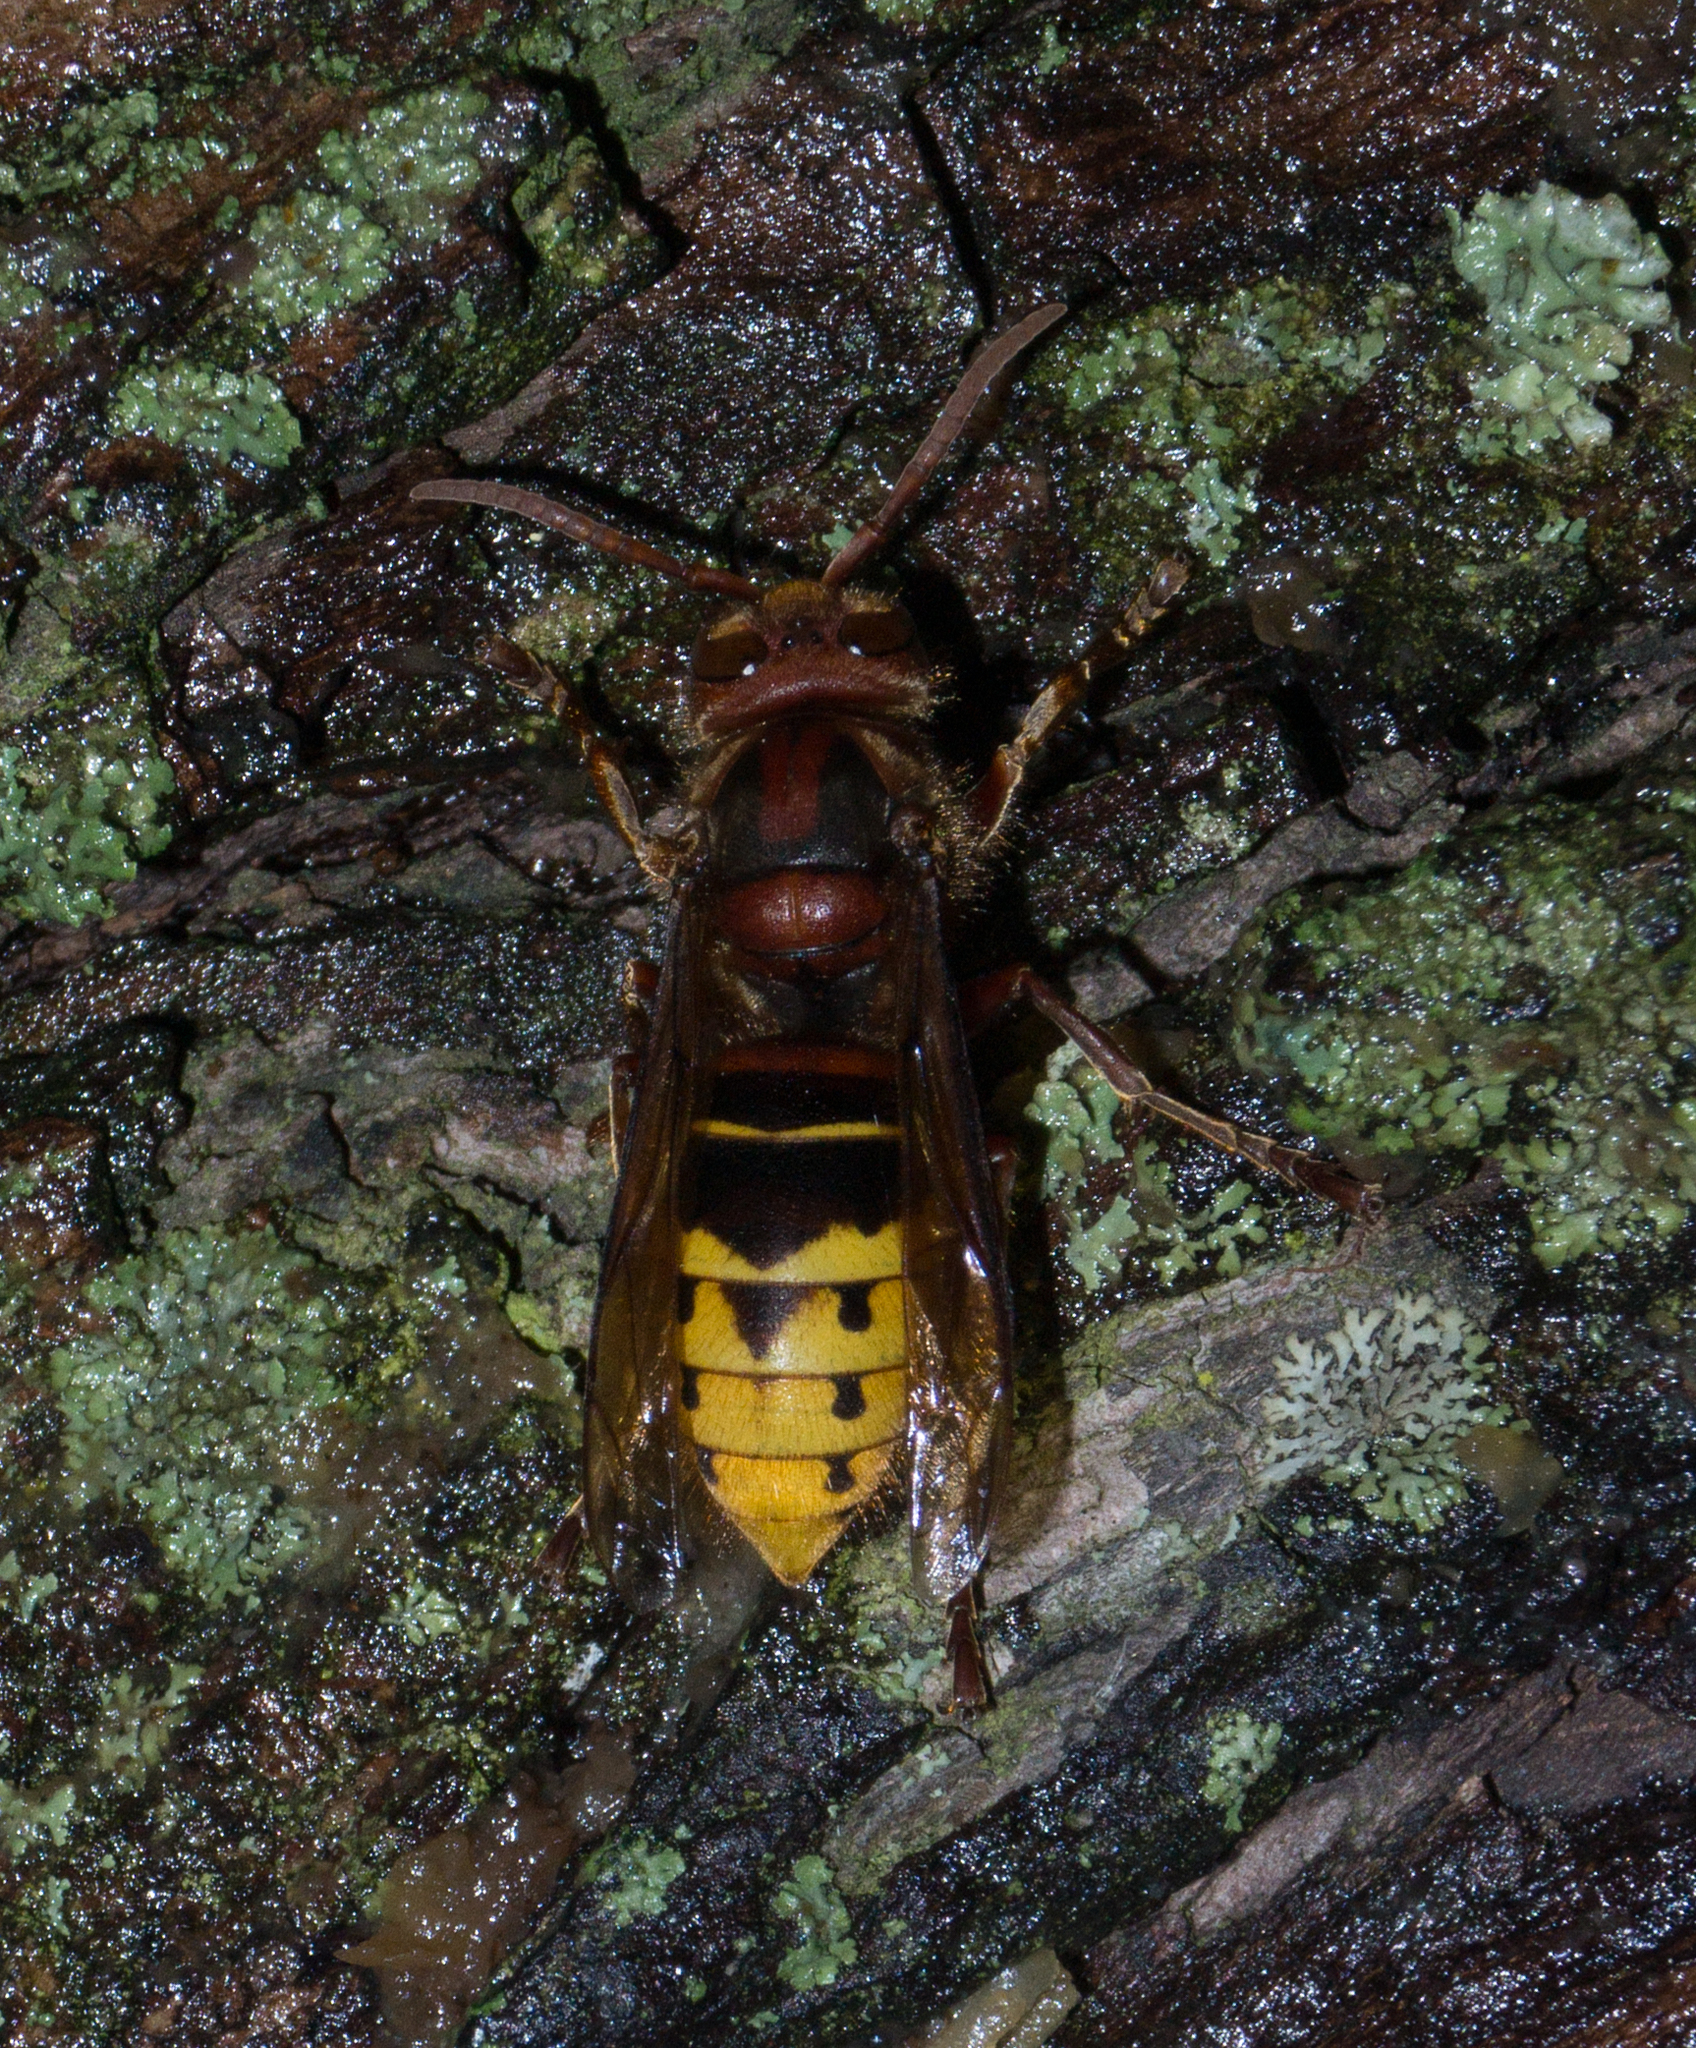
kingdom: Animalia
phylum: Arthropoda
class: Insecta
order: Hymenoptera
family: Vespidae
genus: Vespa
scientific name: Vespa crabro
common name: Hornet
